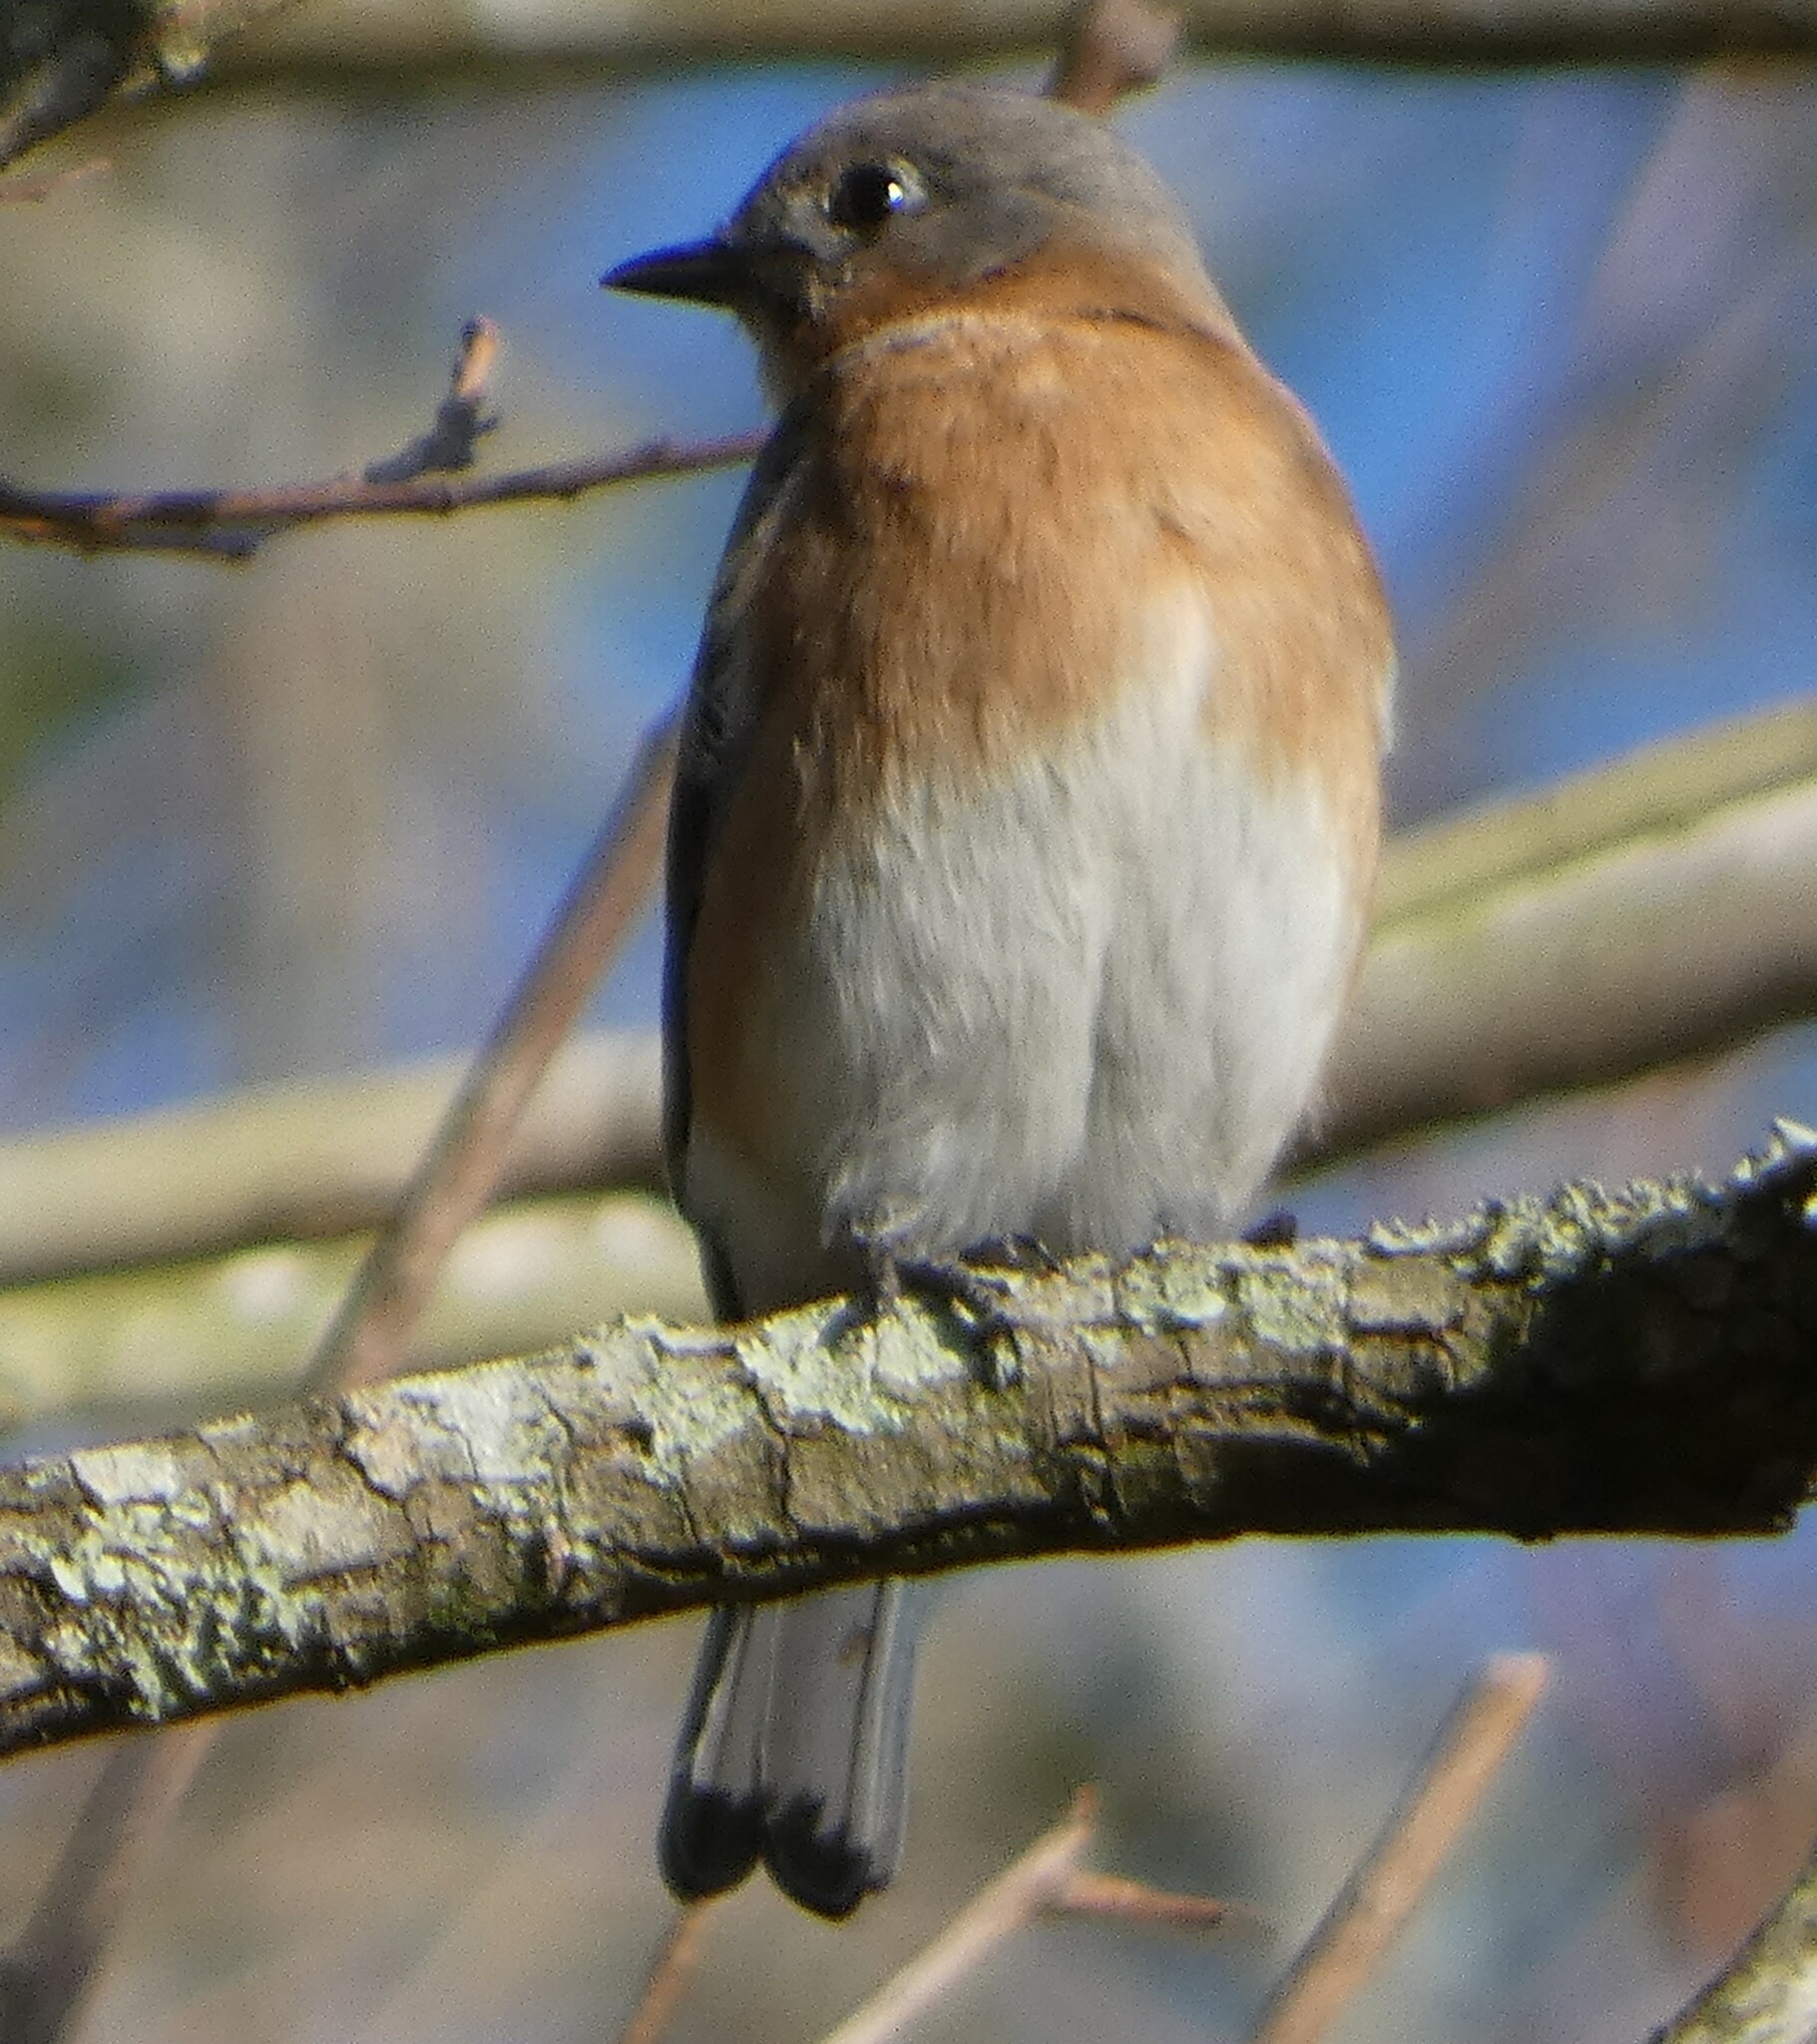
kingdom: Animalia
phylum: Chordata
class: Aves
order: Passeriformes
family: Turdidae
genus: Sialia
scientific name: Sialia sialis
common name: Eastern bluebird
